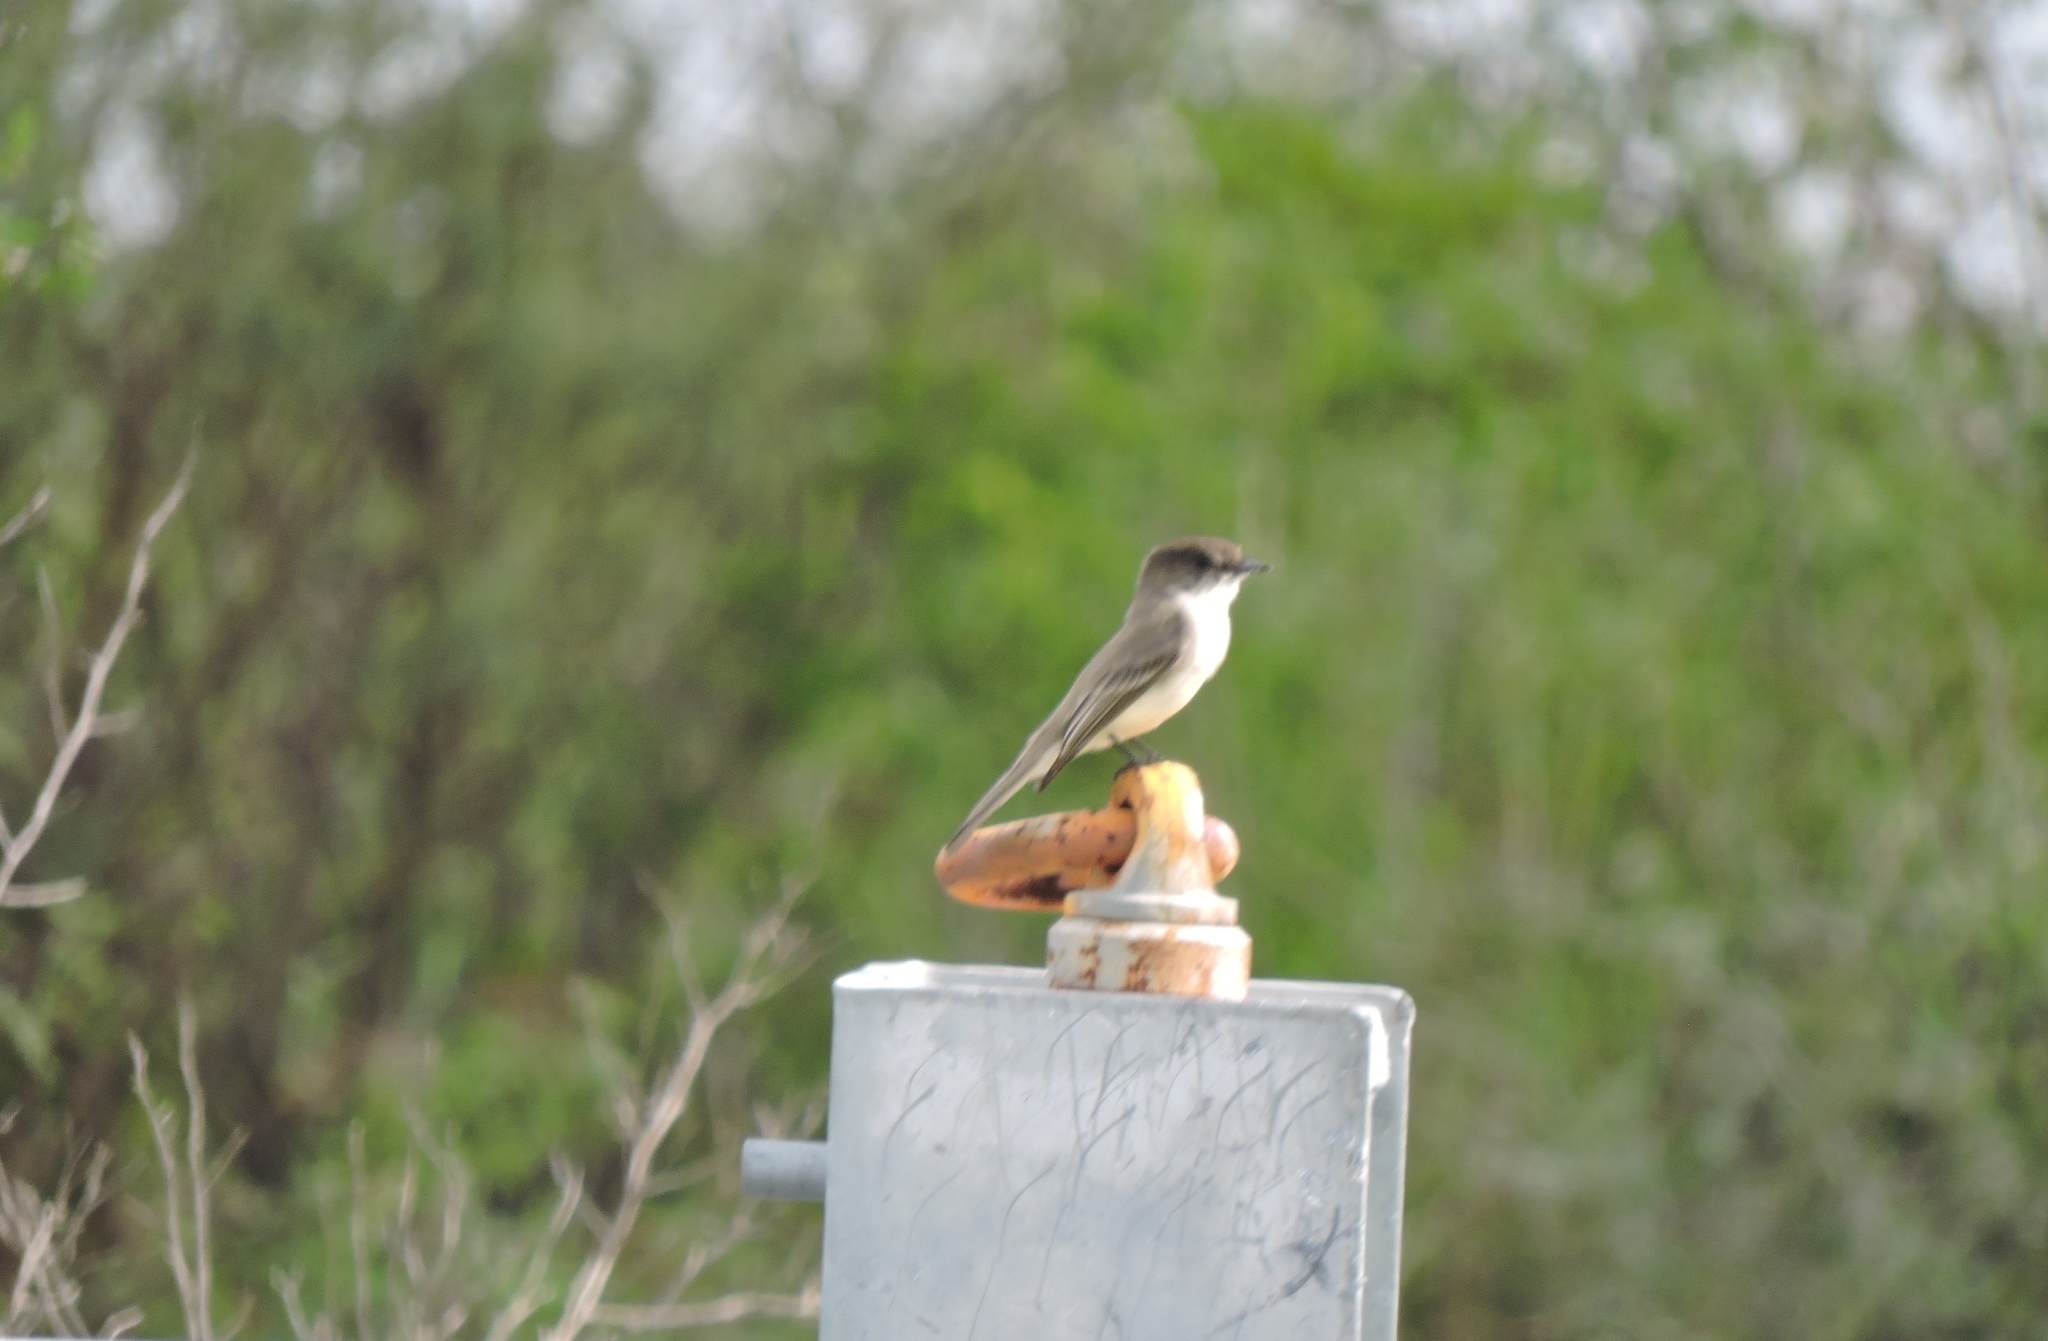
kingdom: Animalia
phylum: Chordata
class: Aves
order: Passeriformes
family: Tyrannidae
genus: Sayornis
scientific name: Sayornis phoebe
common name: Eastern phoebe
